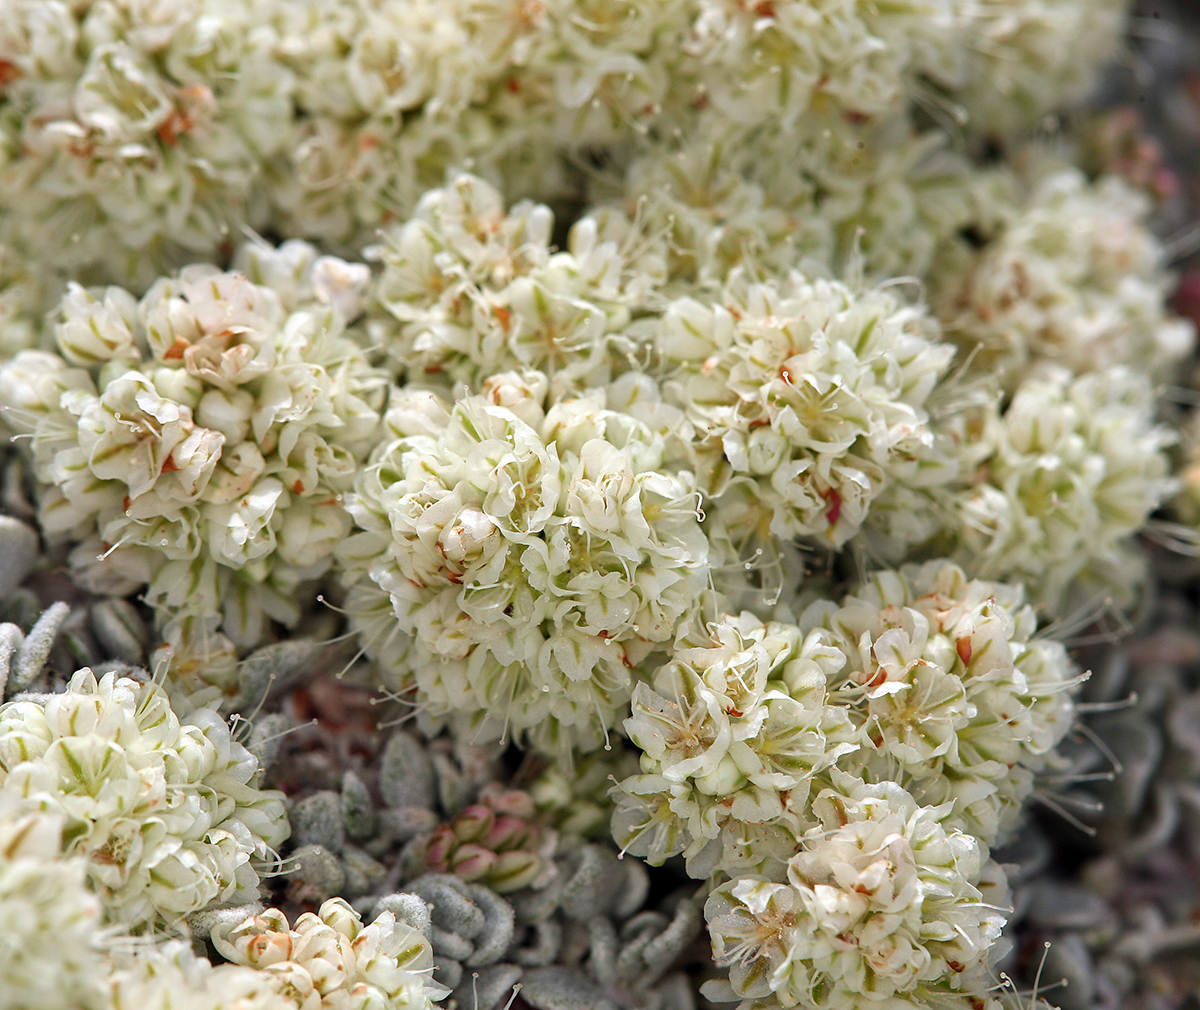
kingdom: Plantae
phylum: Tracheophyta
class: Magnoliopsida
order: Caryophyllales
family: Polygonaceae
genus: Eriogonum
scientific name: Eriogonum ovalifolium
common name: Cushion buckwheat
